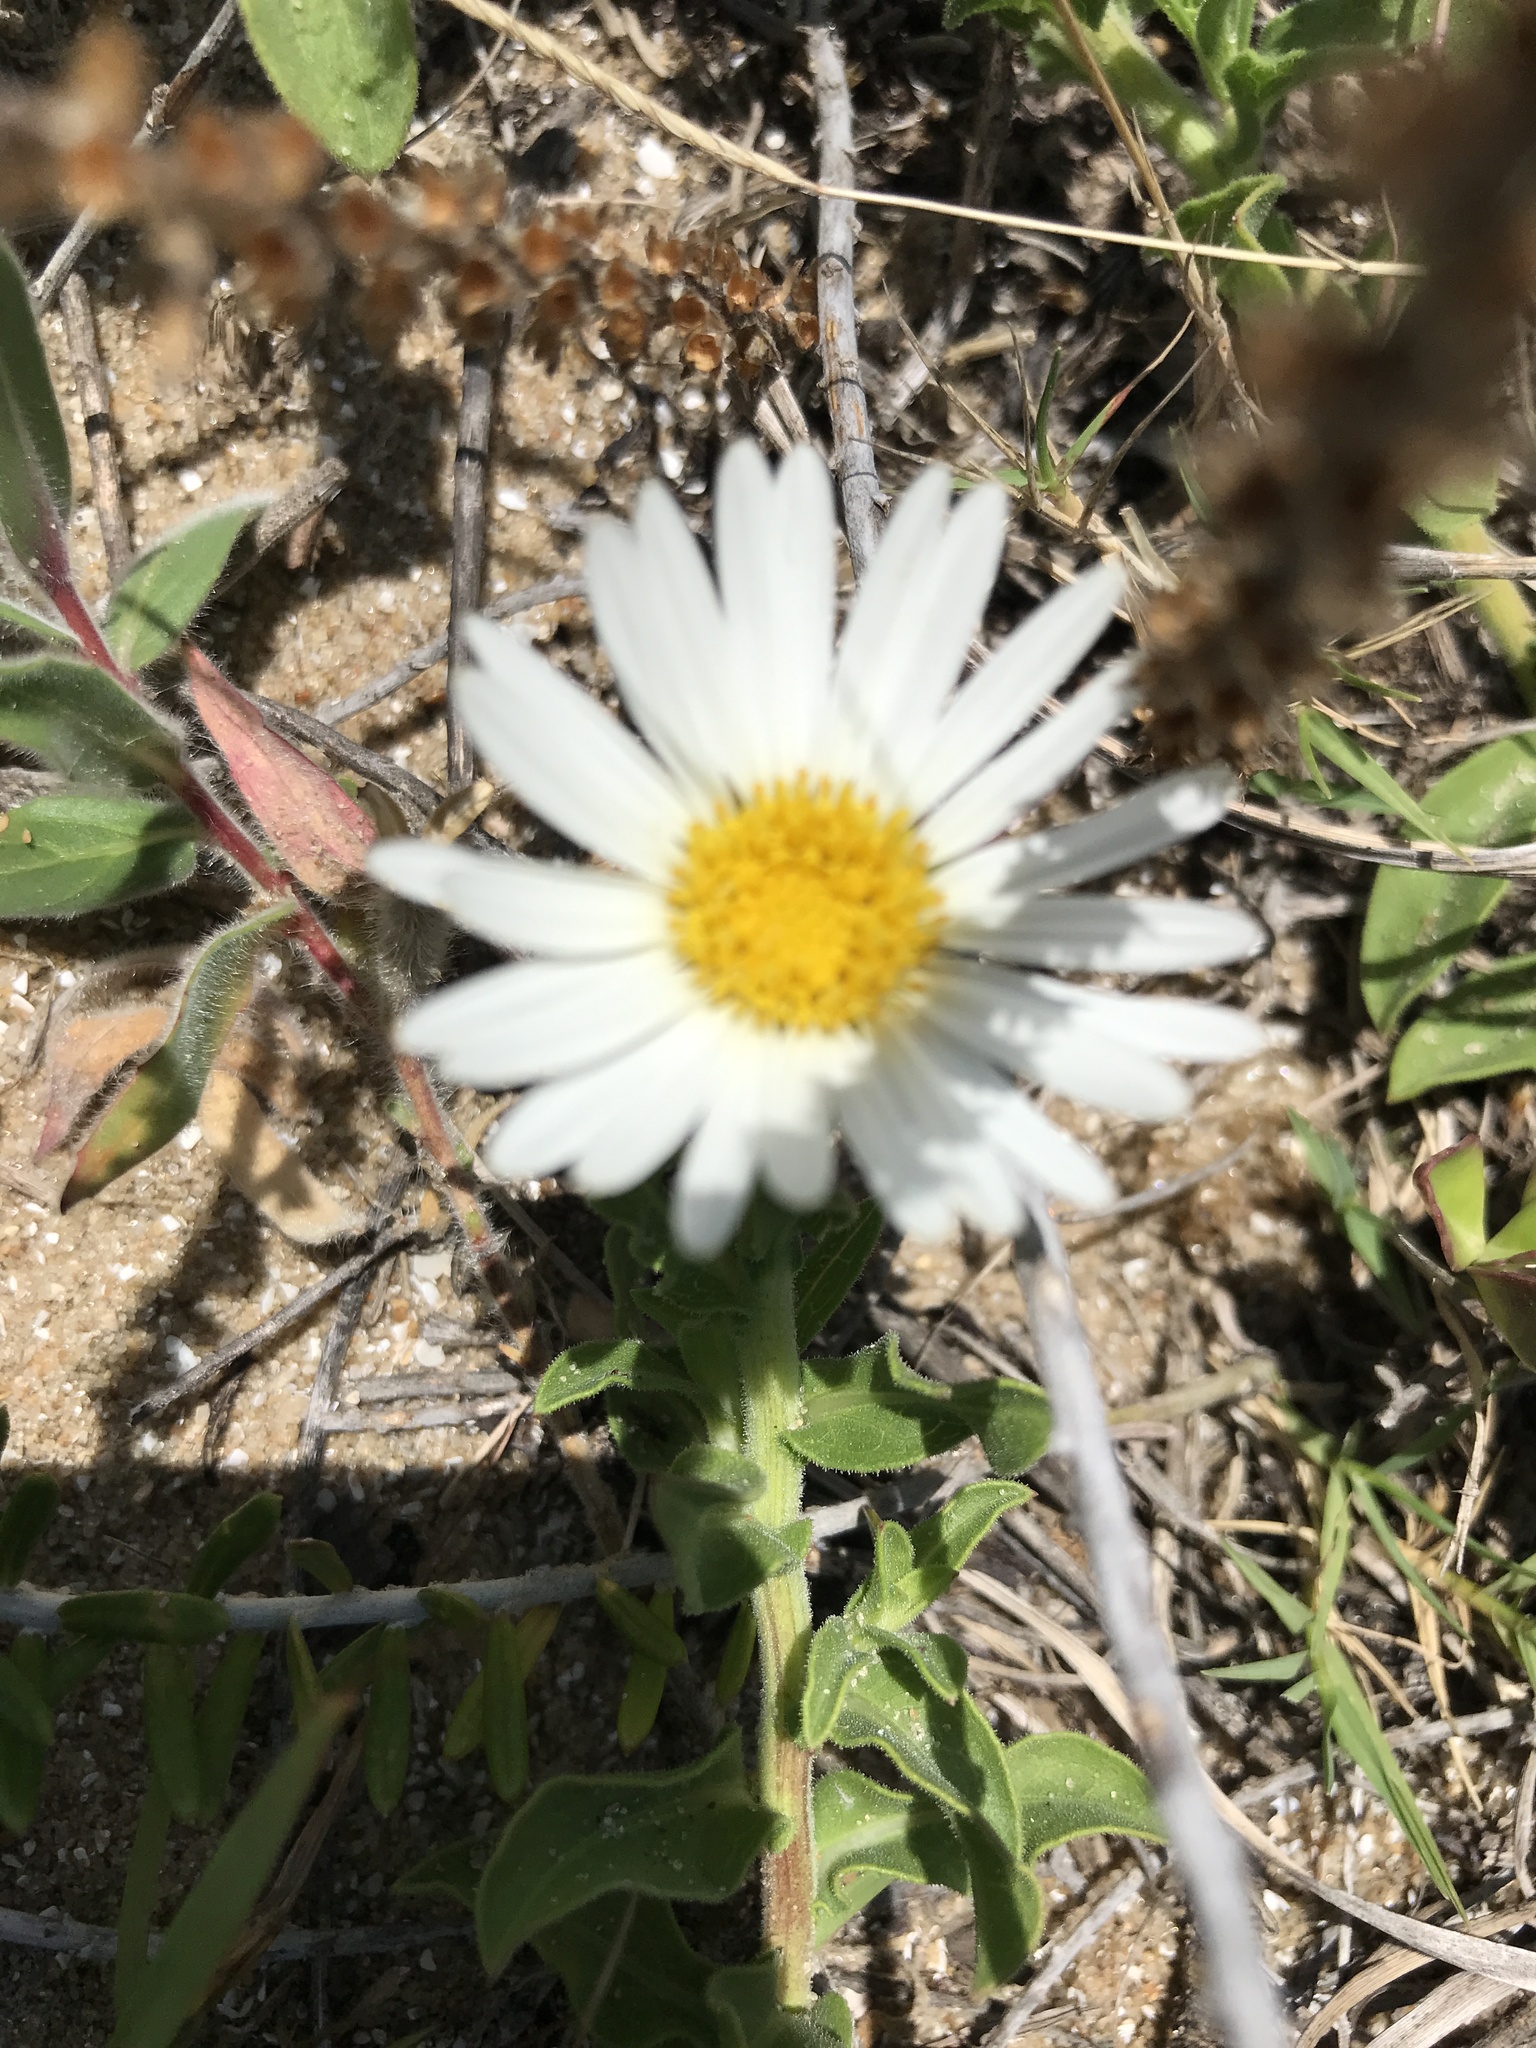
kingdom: Plantae
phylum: Tracheophyta
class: Magnoliopsida
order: Asterales
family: Asteraceae
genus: Noticastrum
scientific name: Noticastrum malmei
